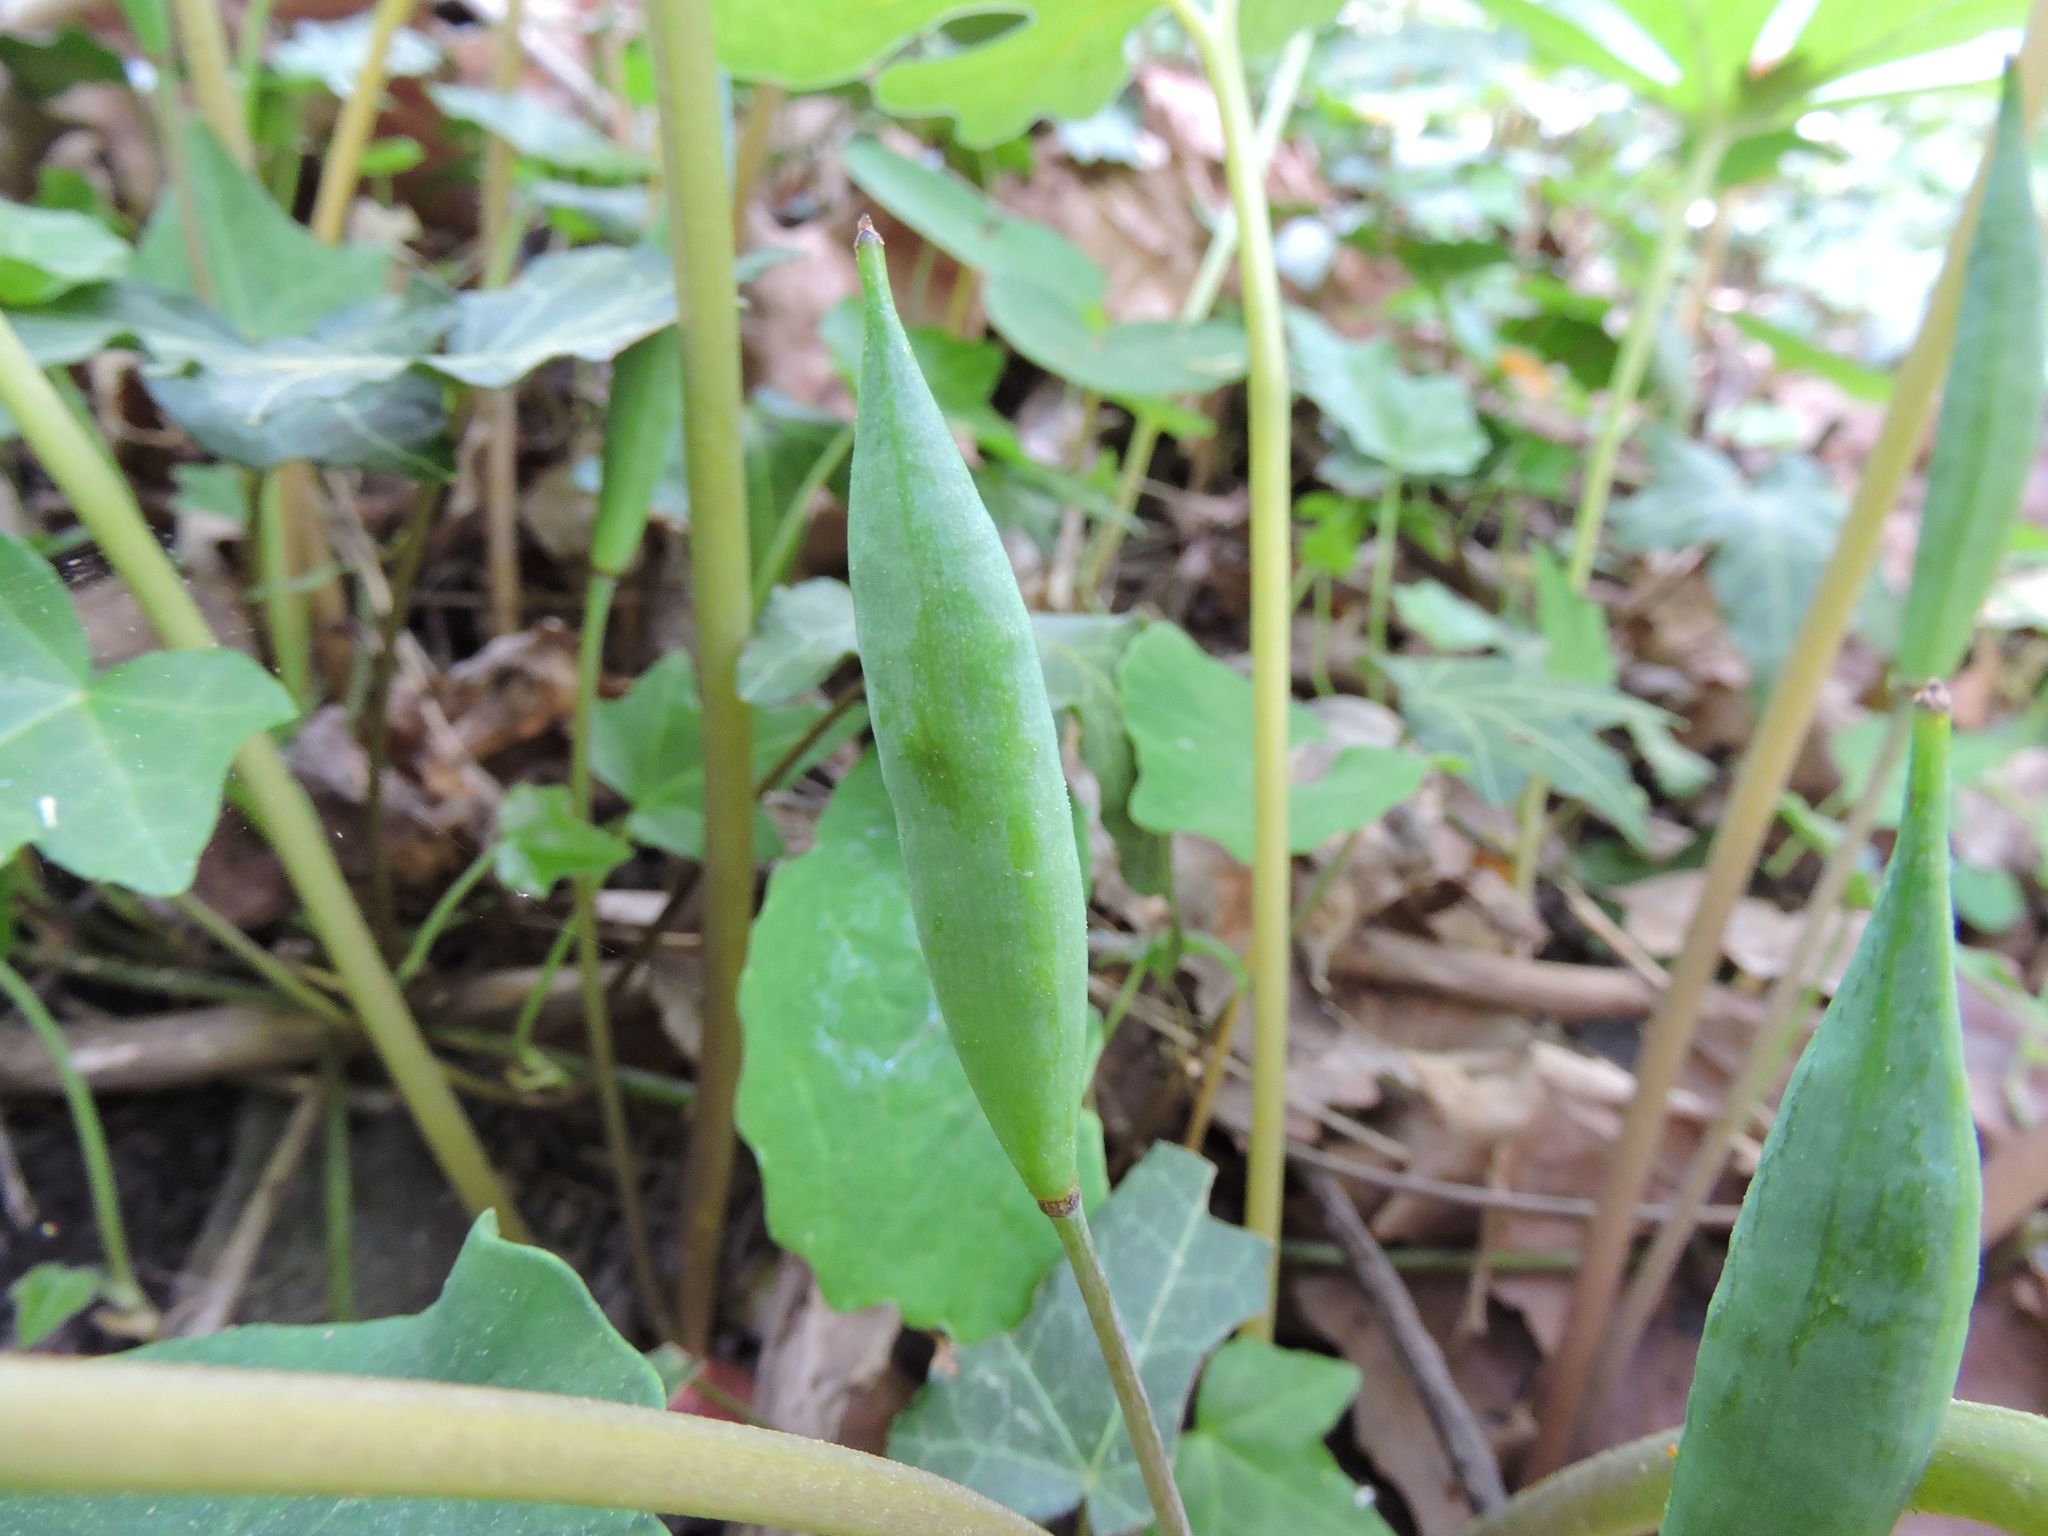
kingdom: Plantae
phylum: Tracheophyta
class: Magnoliopsida
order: Ranunculales
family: Papaveraceae
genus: Sanguinaria
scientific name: Sanguinaria canadensis
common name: Bloodroot
